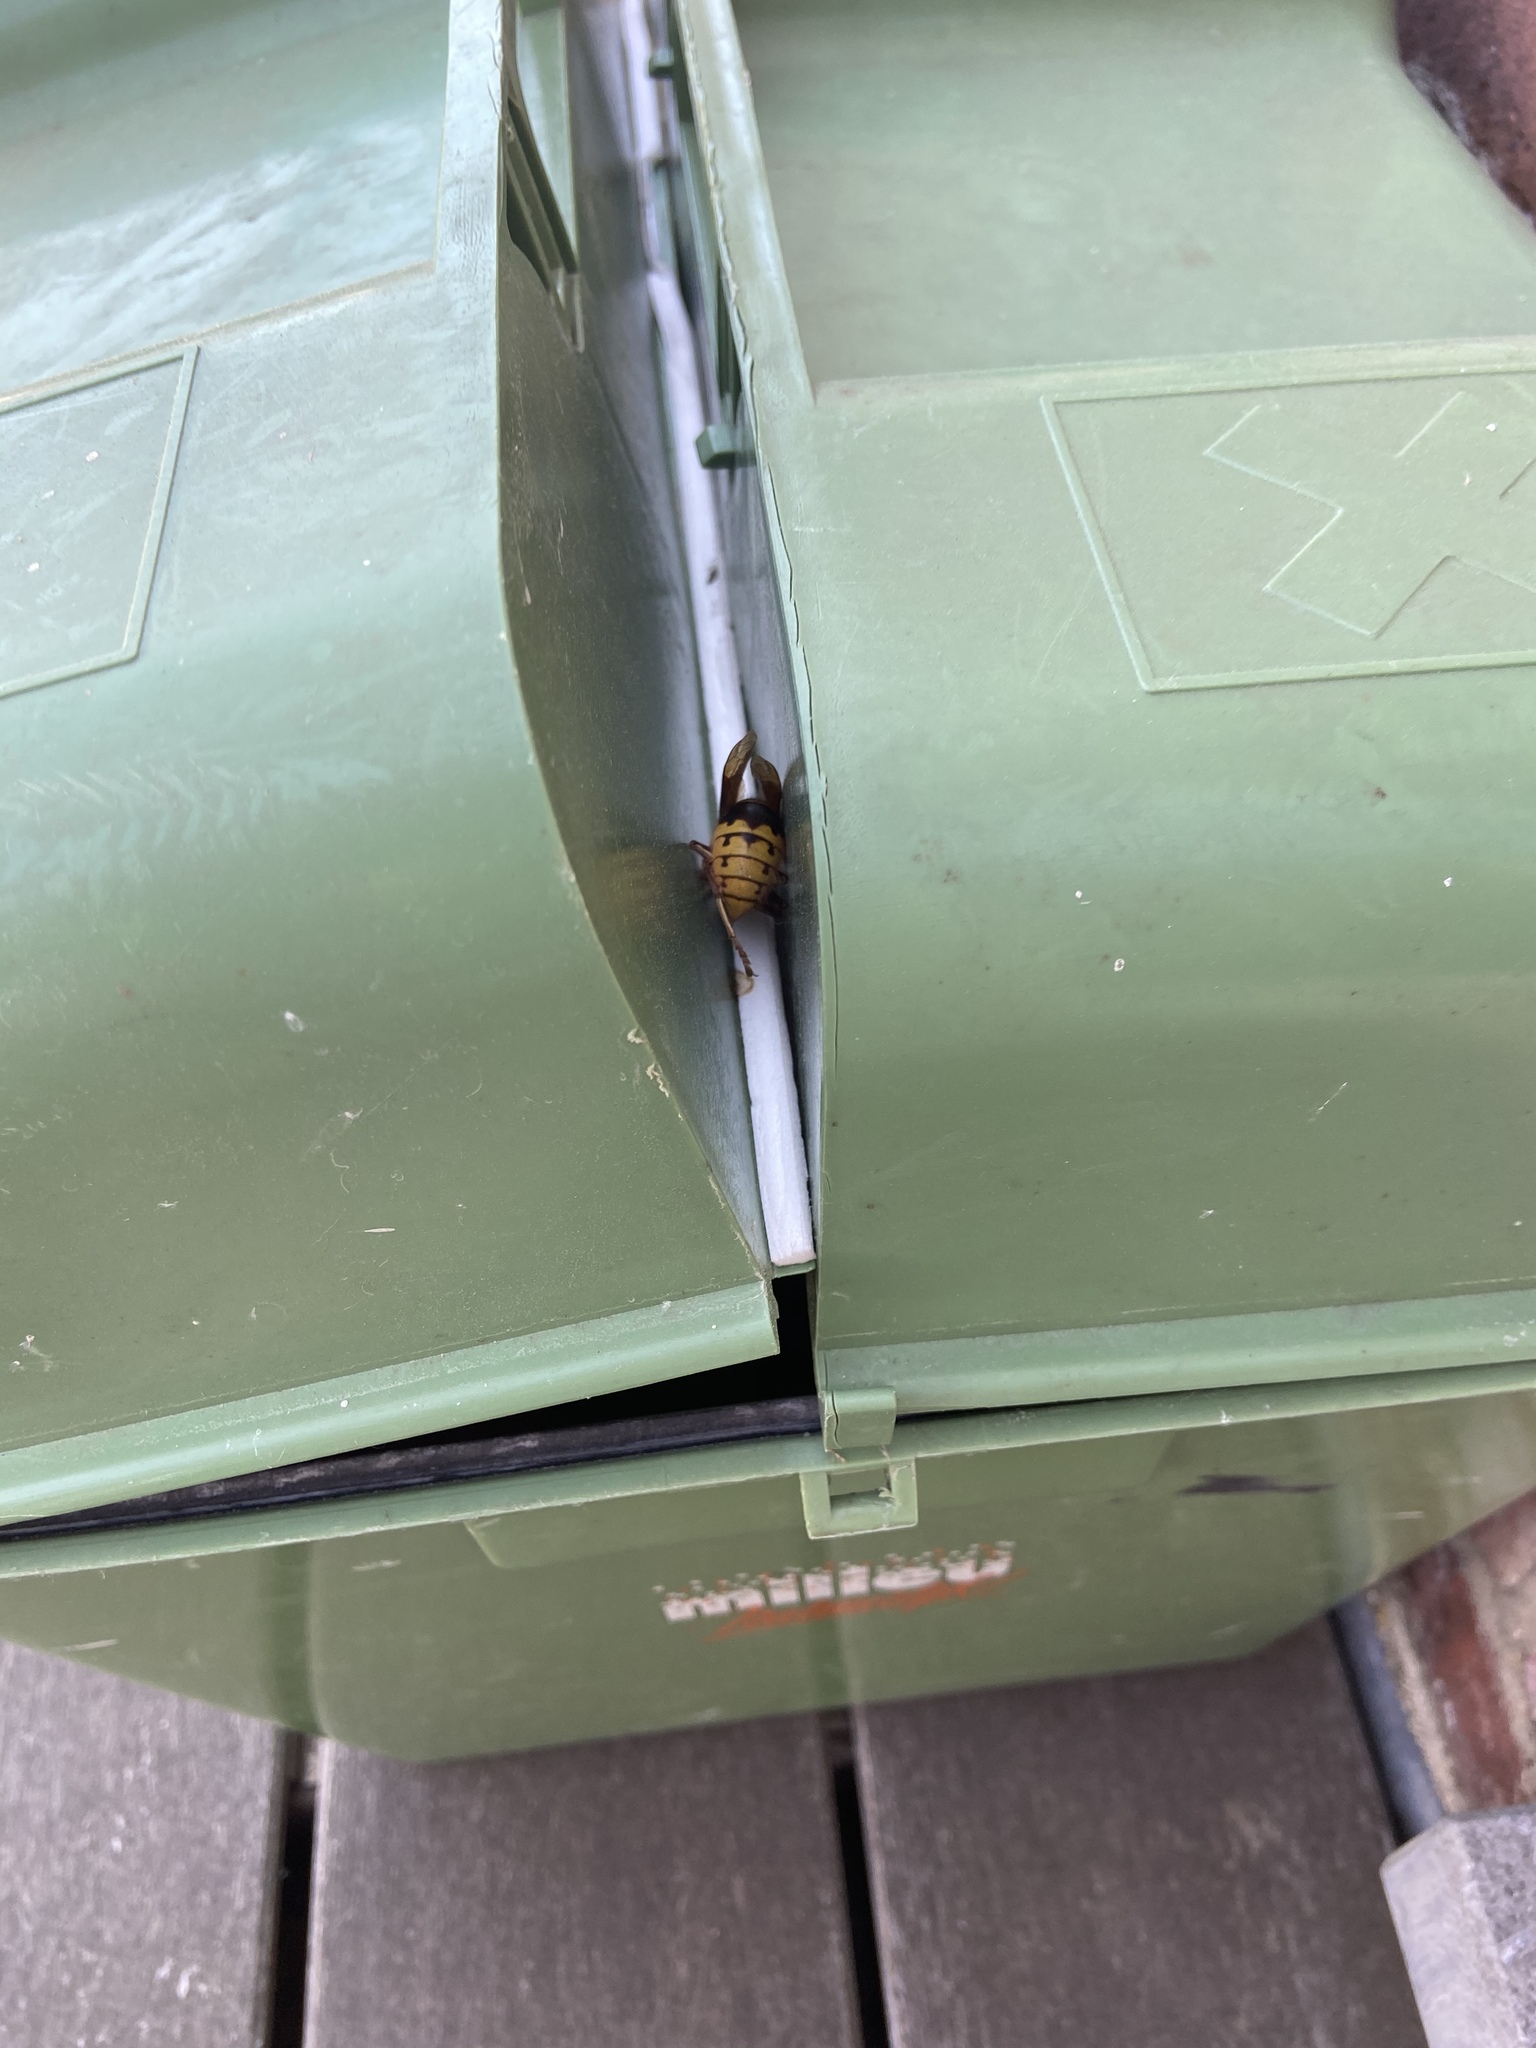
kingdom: Animalia
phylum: Arthropoda
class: Insecta
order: Hymenoptera
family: Vespidae
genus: Vespa
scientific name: Vespa crabro
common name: Hornet
